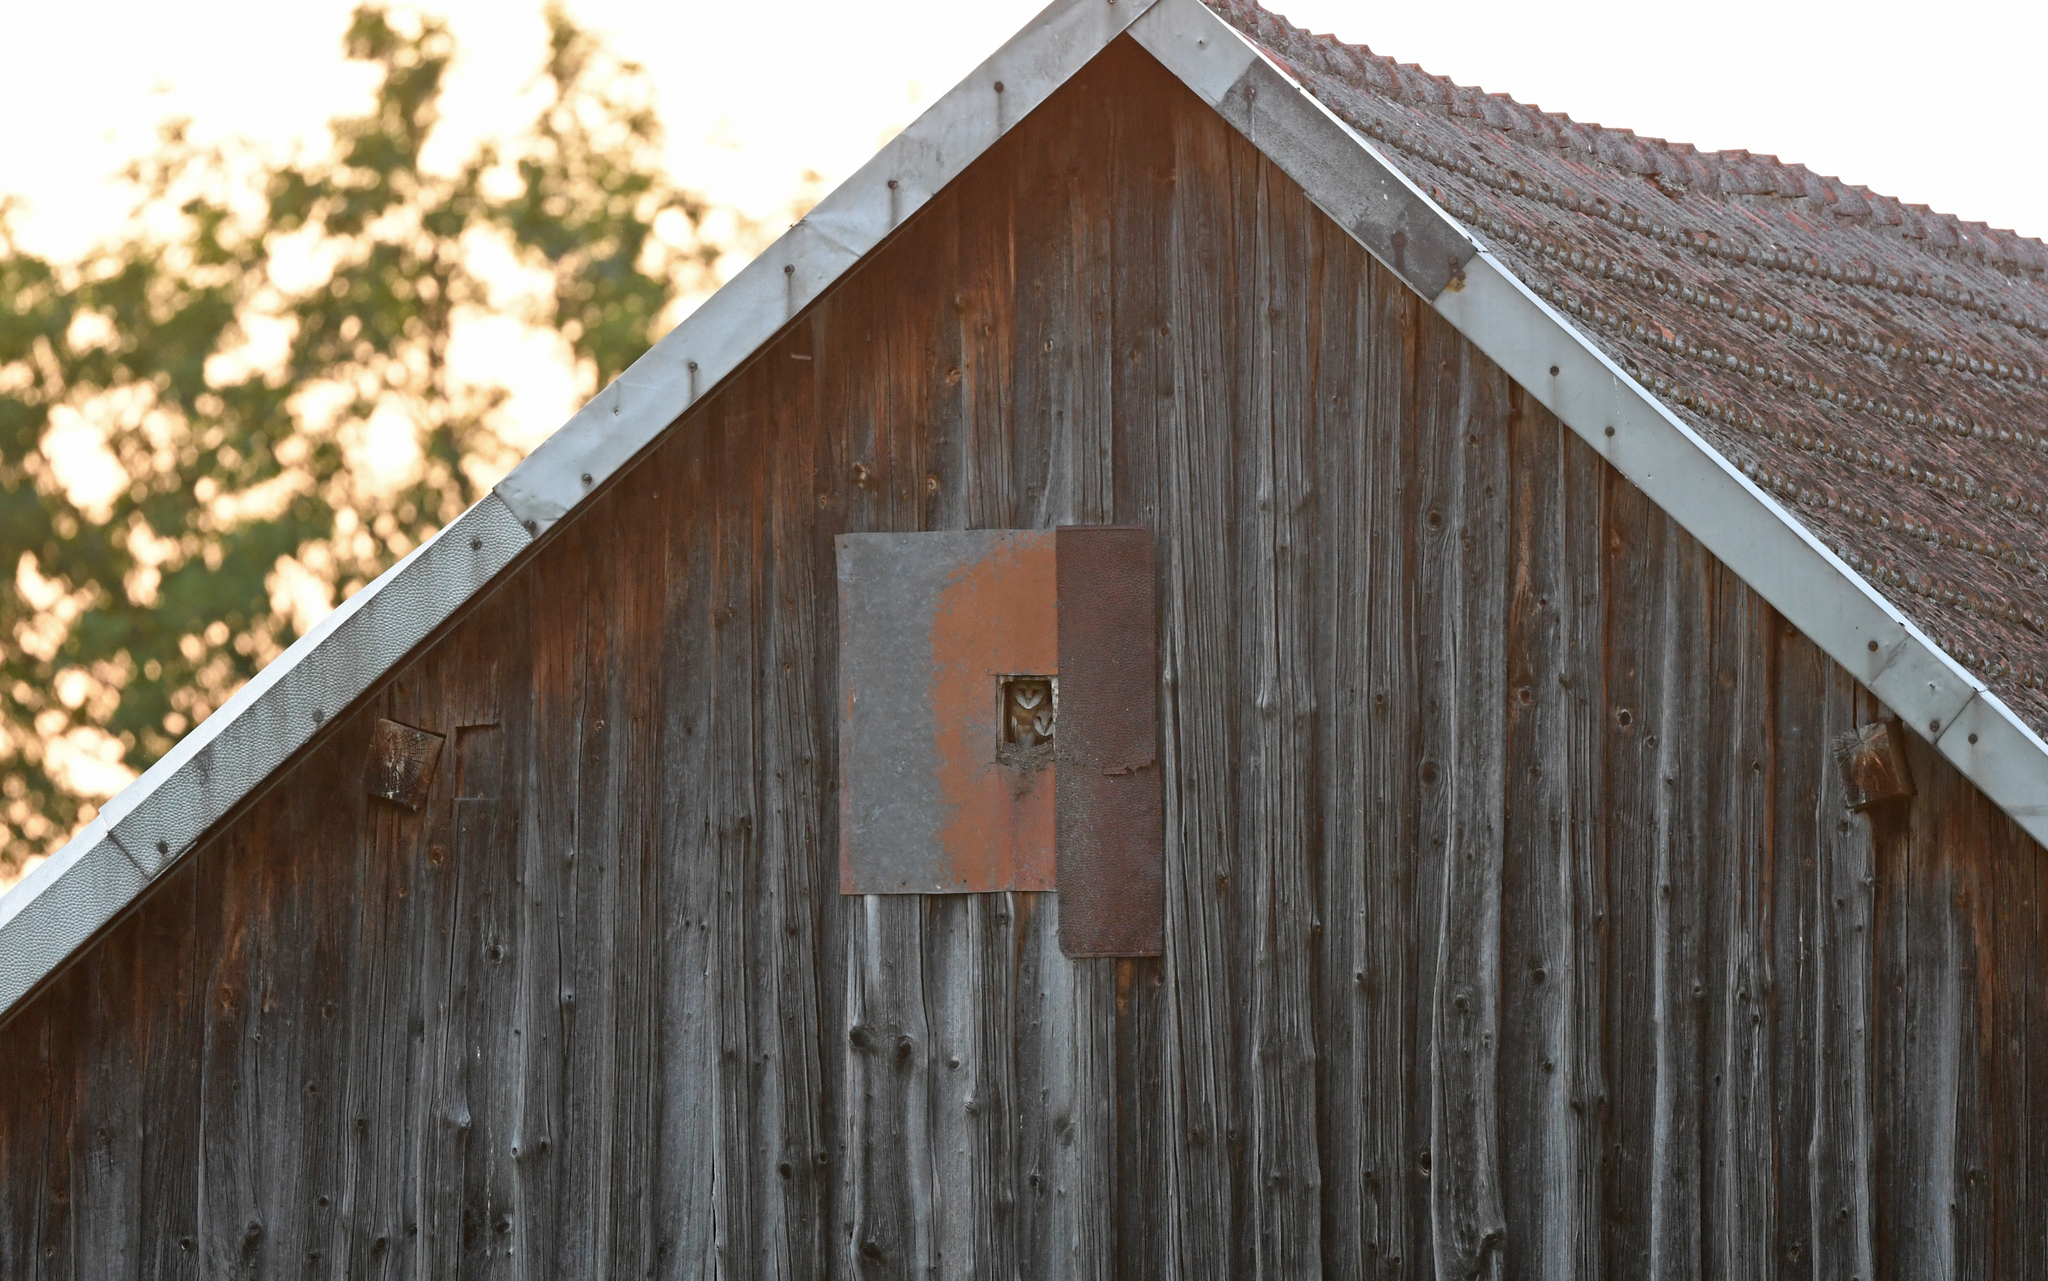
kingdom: Animalia
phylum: Chordata
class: Aves
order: Strigiformes
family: Tytonidae
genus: Tyto
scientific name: Tyto alba
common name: Barn owl
